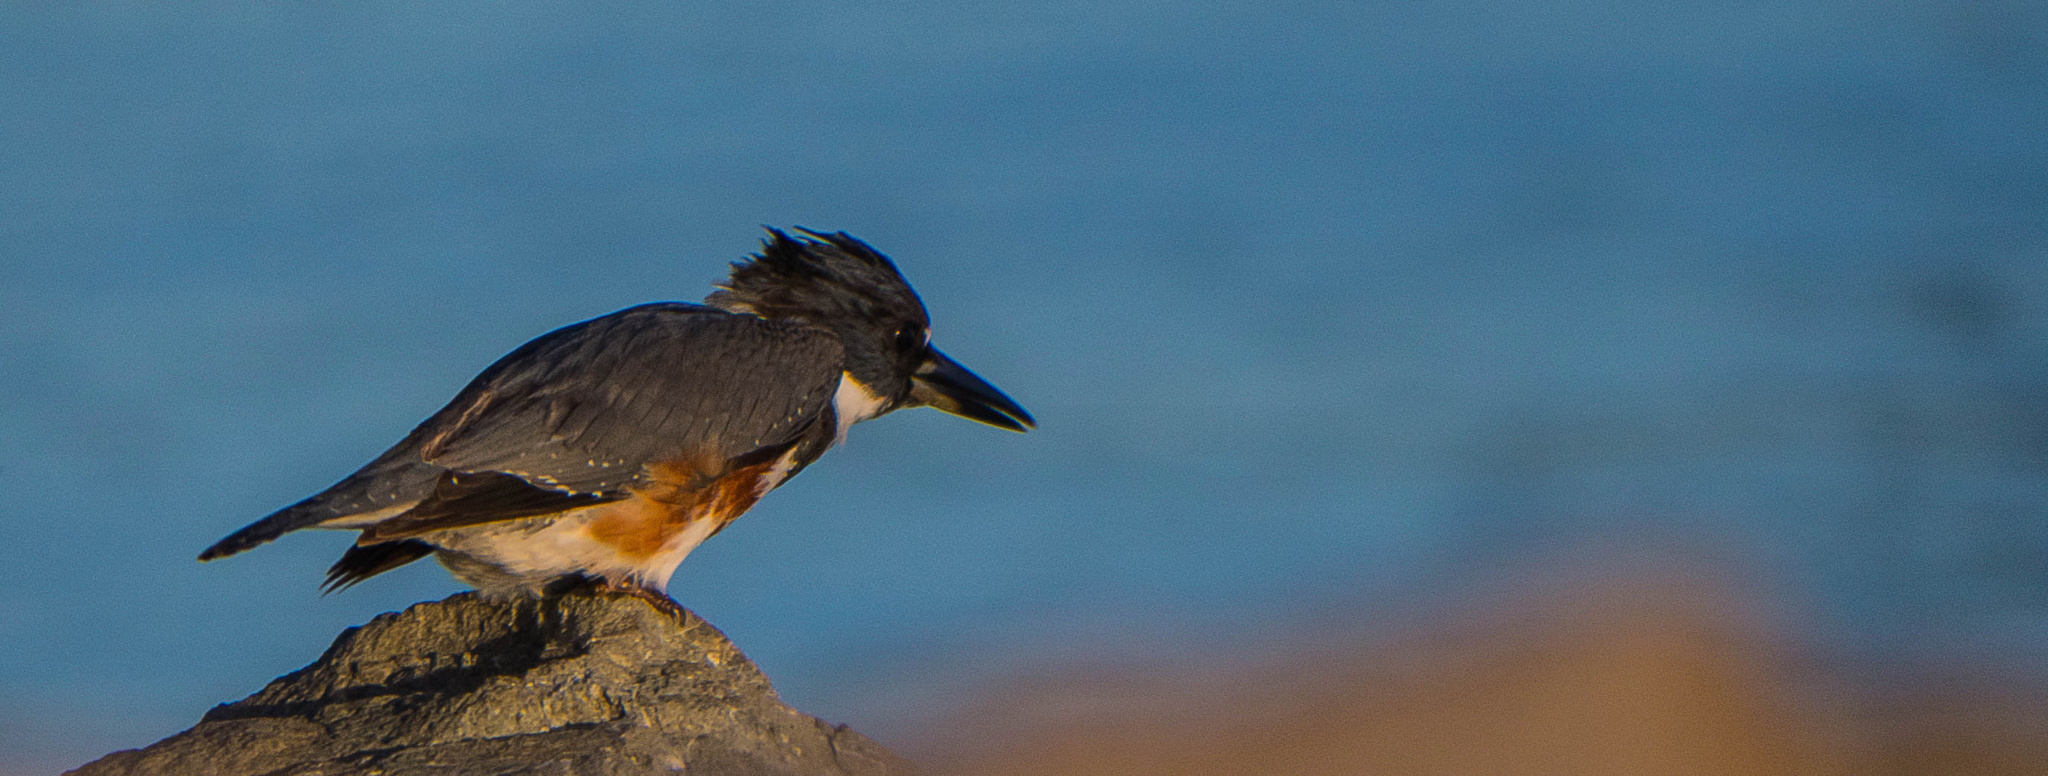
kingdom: Animalia
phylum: Chordata
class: Aves
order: Coraciiformes
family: Alcedinidae
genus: Megaceryle
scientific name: Megaceryle alcyon
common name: Belted kingfisher
